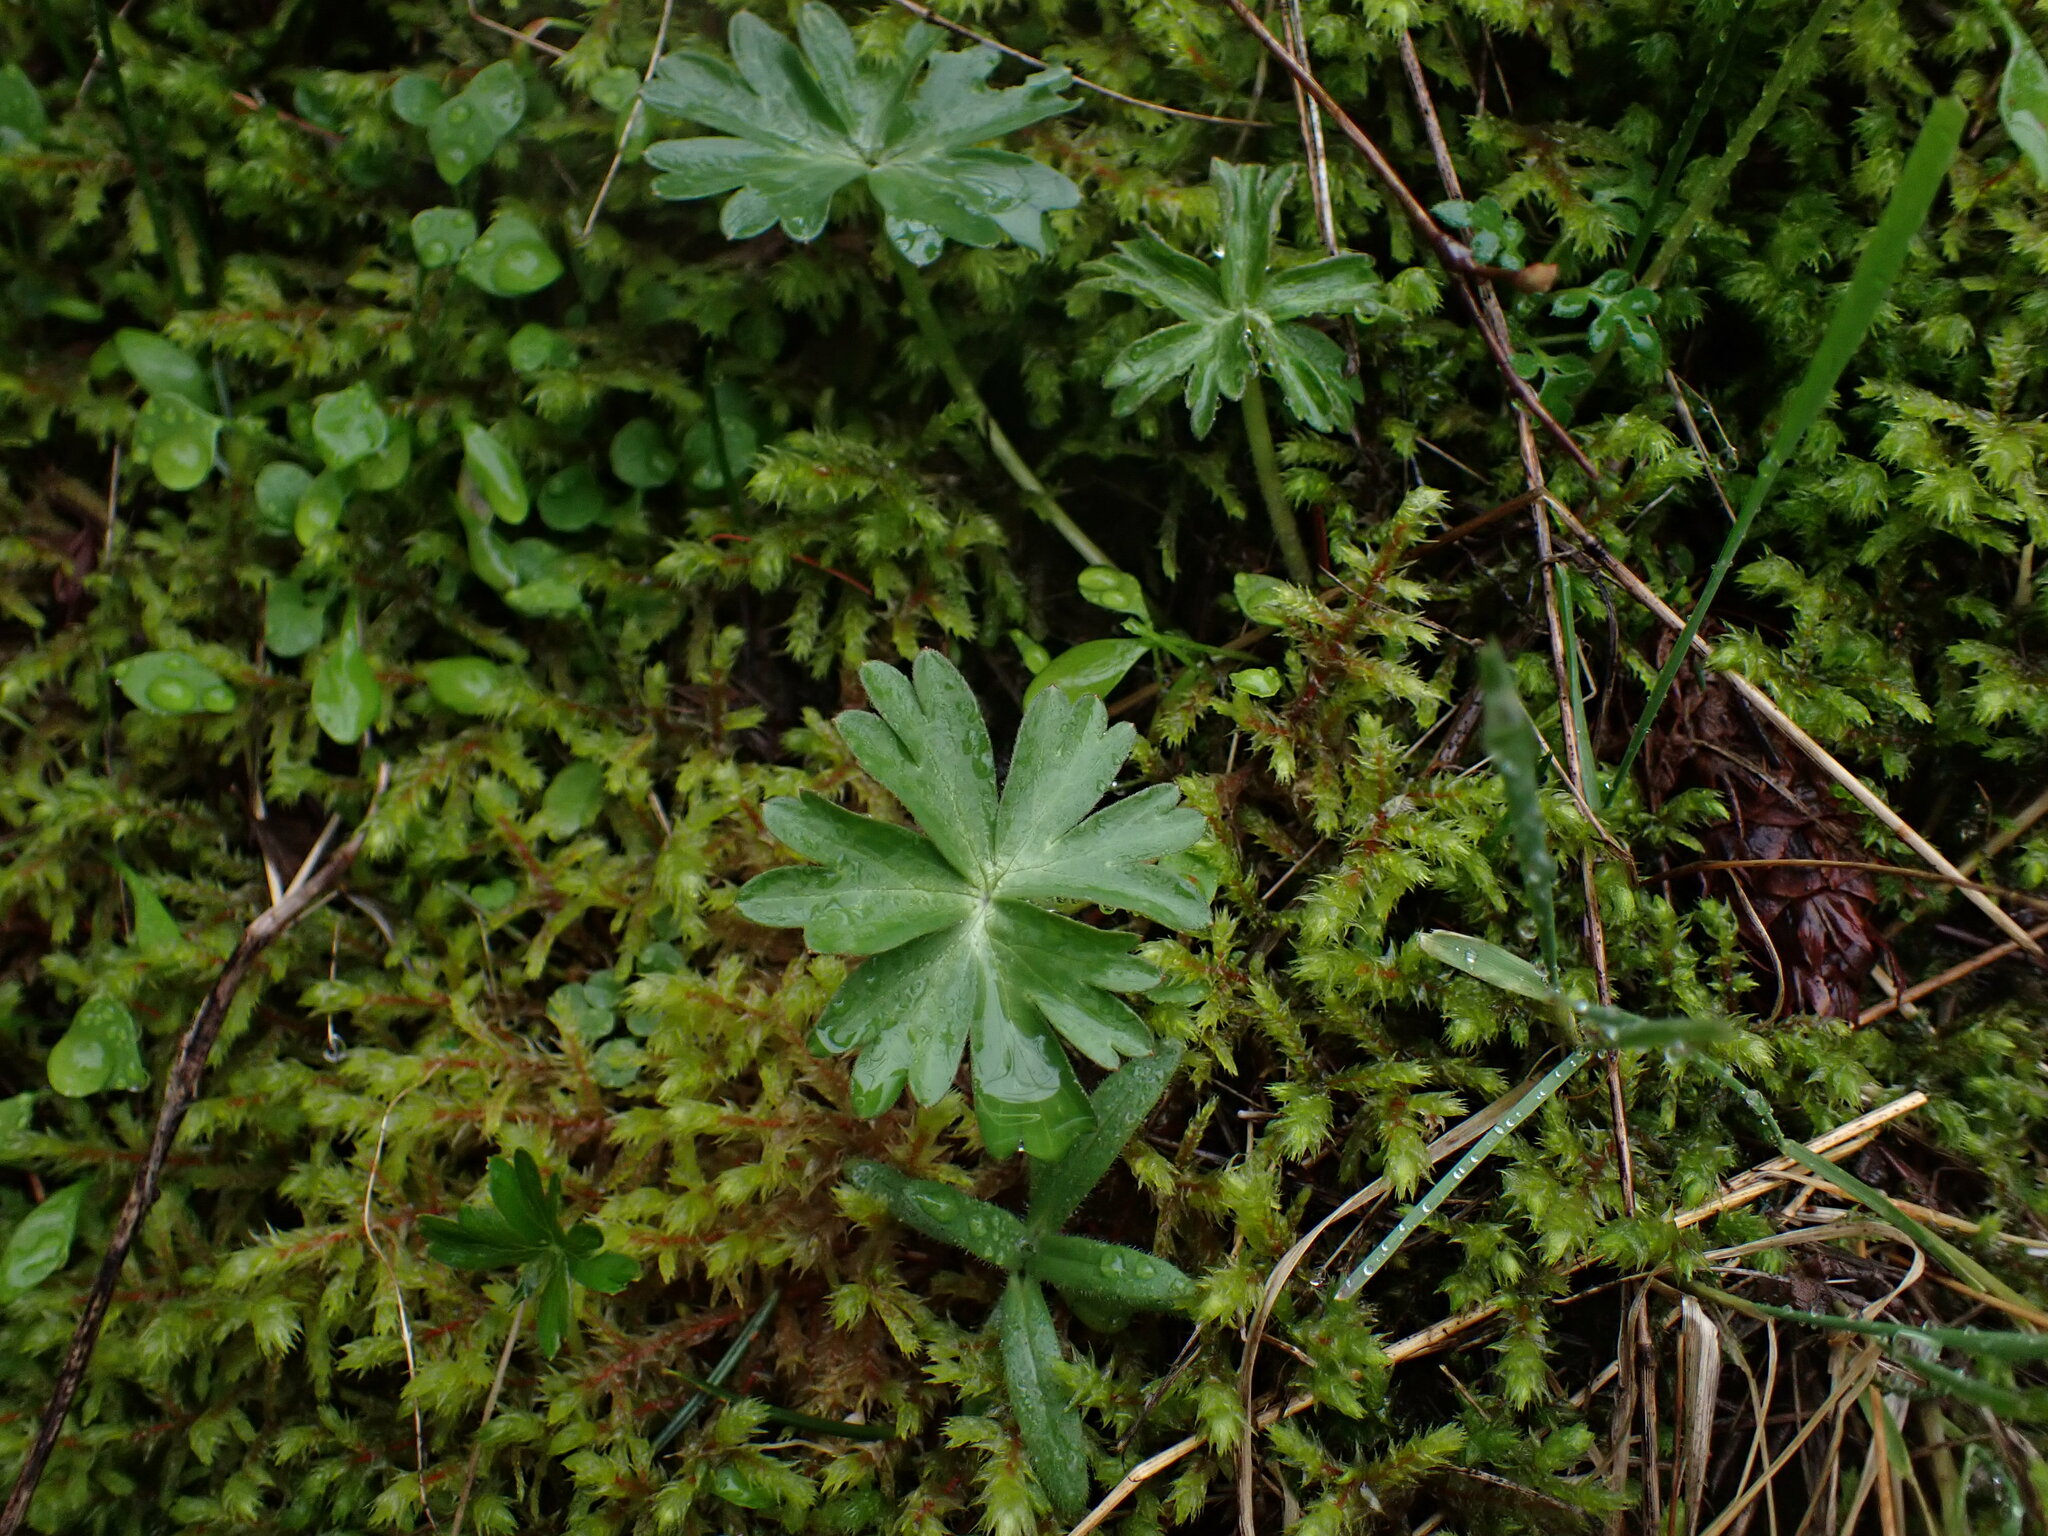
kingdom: Plantae
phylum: Tracheophyta
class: Magnoliopsida
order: Ranunculales
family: Ranunculaceae
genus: Delphinium
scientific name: Delphinium menziesii
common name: Menzies's larkspur
